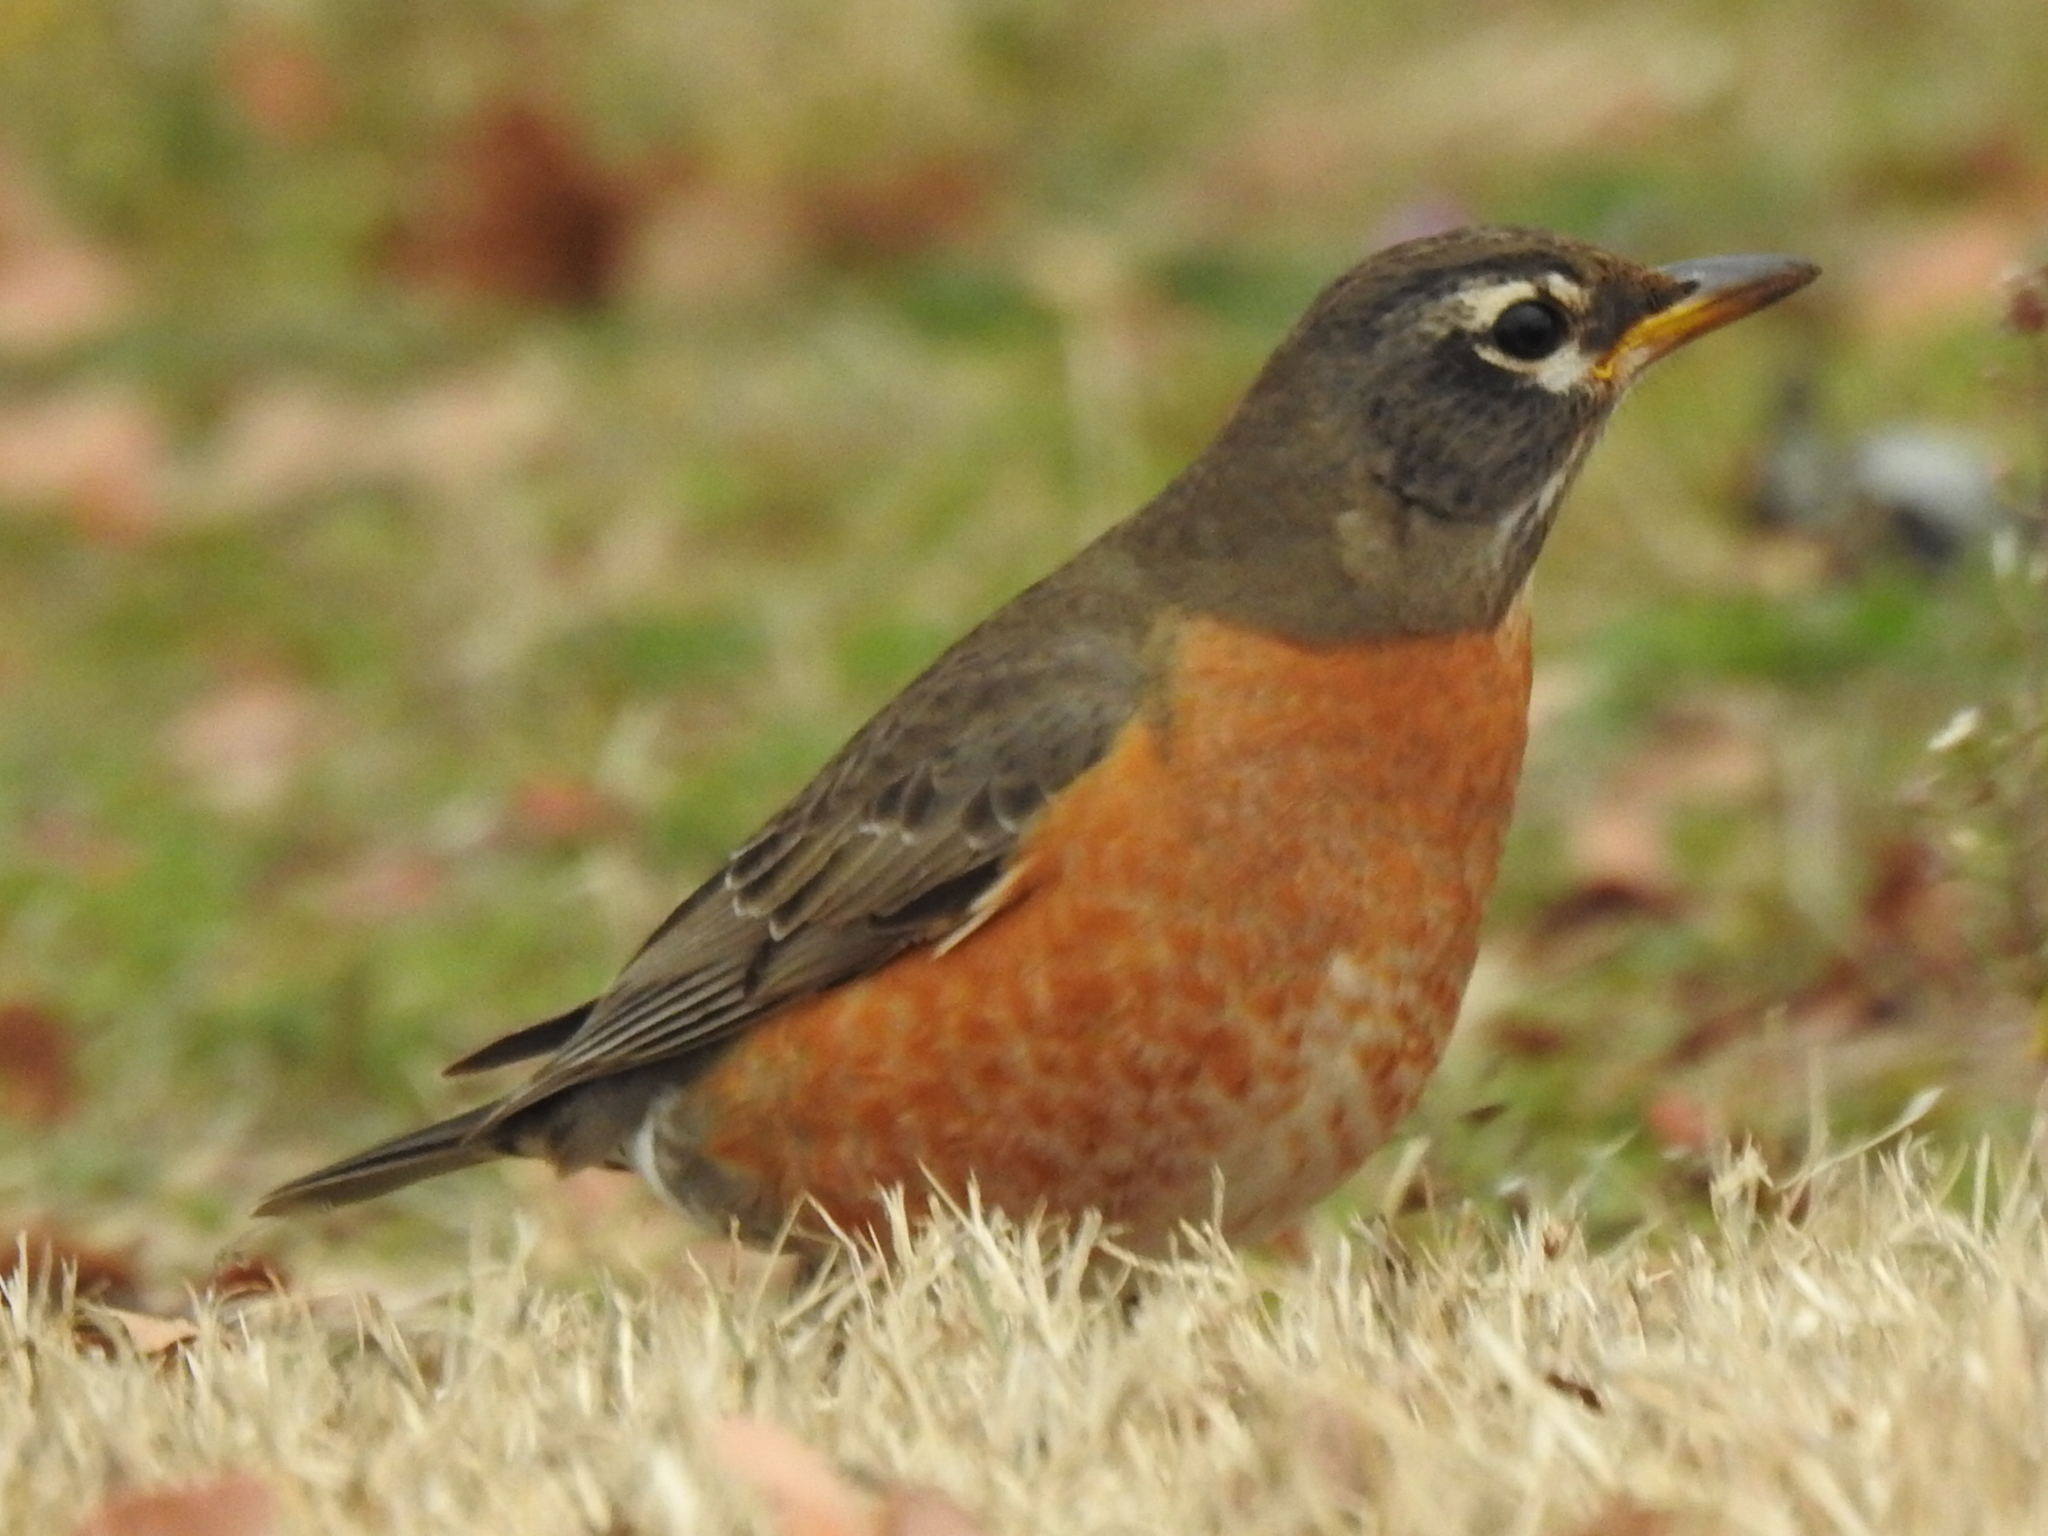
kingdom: Animalia
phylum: Chordata
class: Aves
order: Passeriformes
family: Turdidae
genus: Turdus
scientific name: Turdus migratorius
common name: American robin
